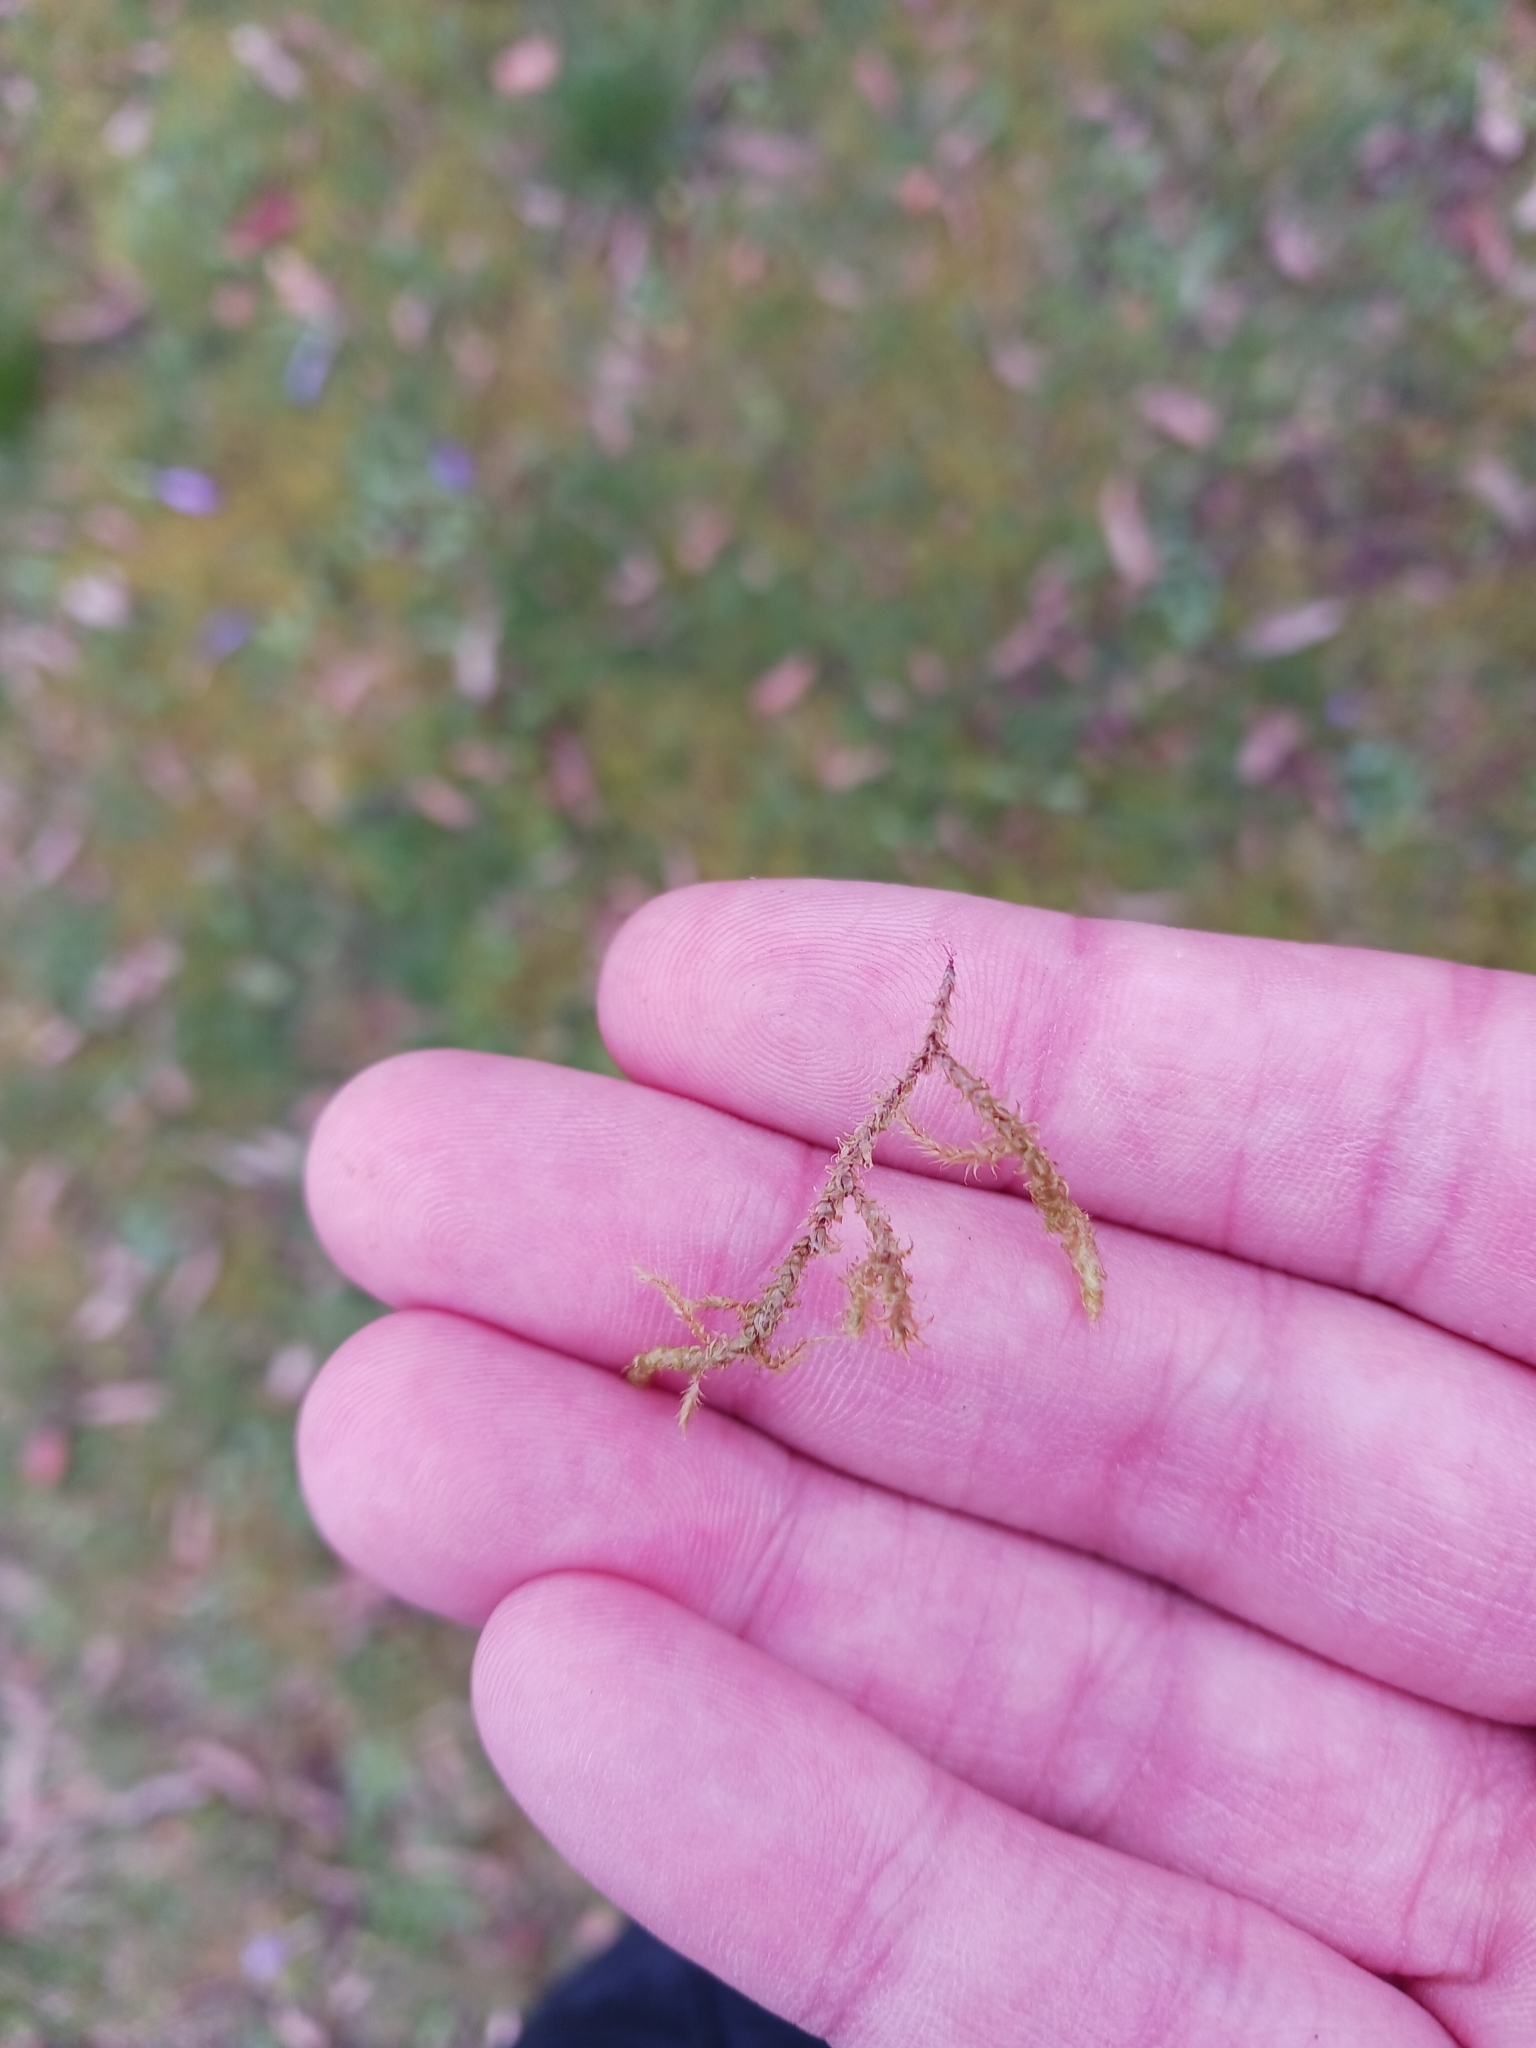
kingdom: Plantae
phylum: Bryophyta
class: Bryopsida
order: Hypnales
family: Hylocomiaceae
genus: Rhytidiadelphus
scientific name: Rhytidiadelphus squarrosus
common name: Springy turf-moss
